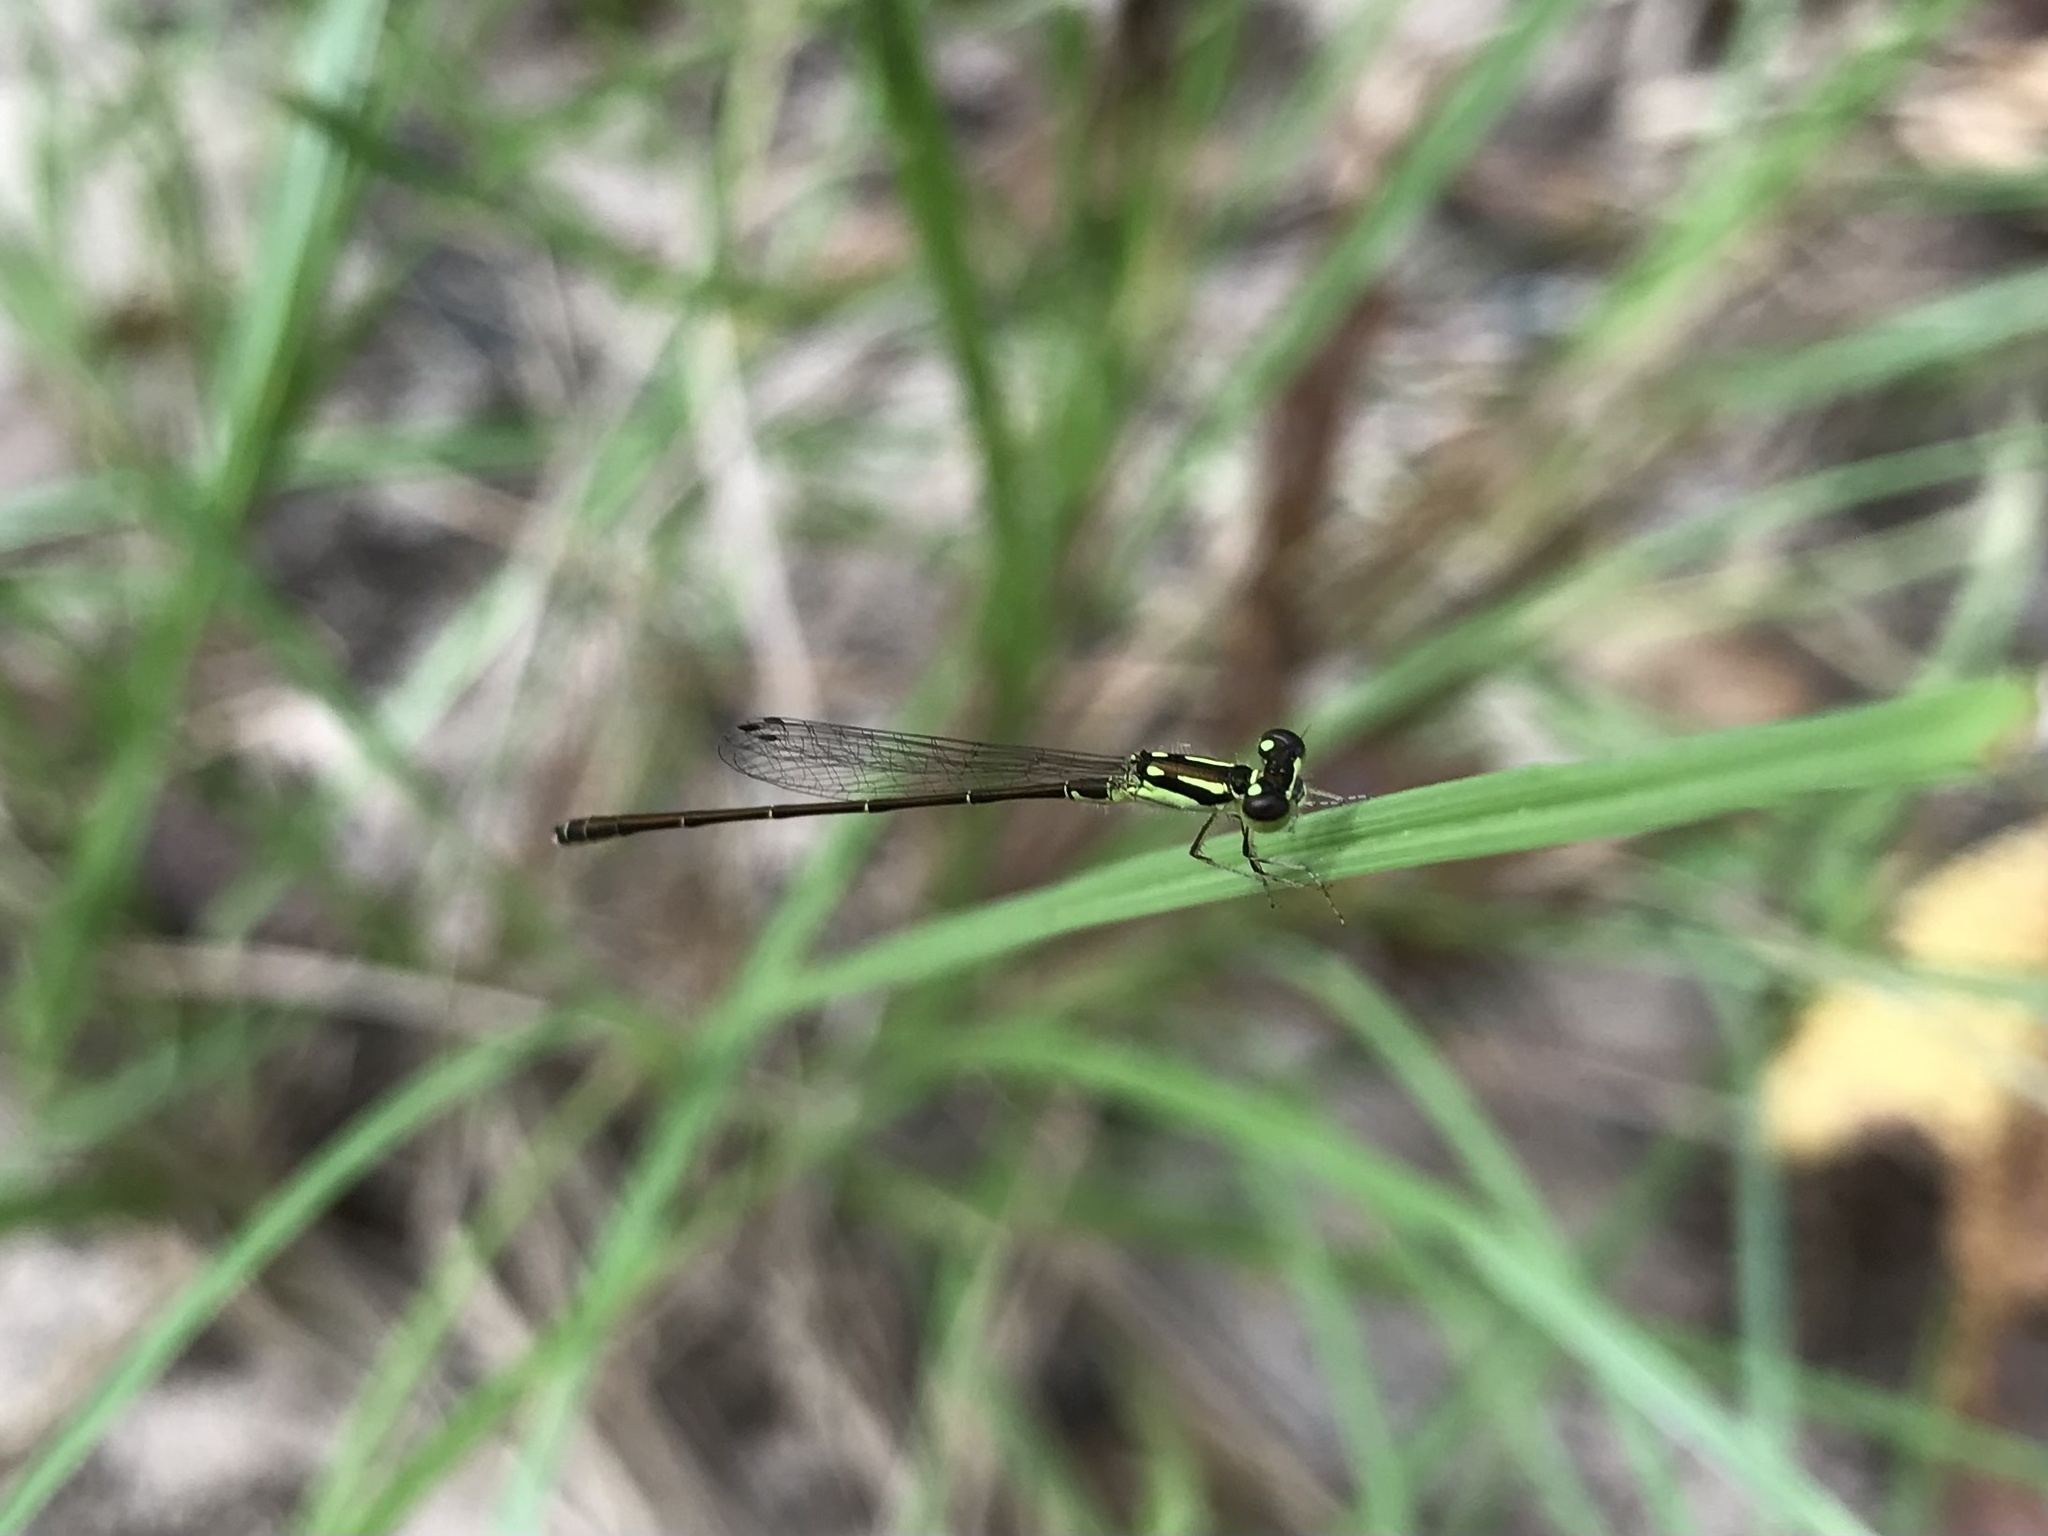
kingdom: Animalia
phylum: Arthropoda
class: Insecta
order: Odonata
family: Coenagrionidae
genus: Ischnura
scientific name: Ischnura posita
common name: Fragile forktail
